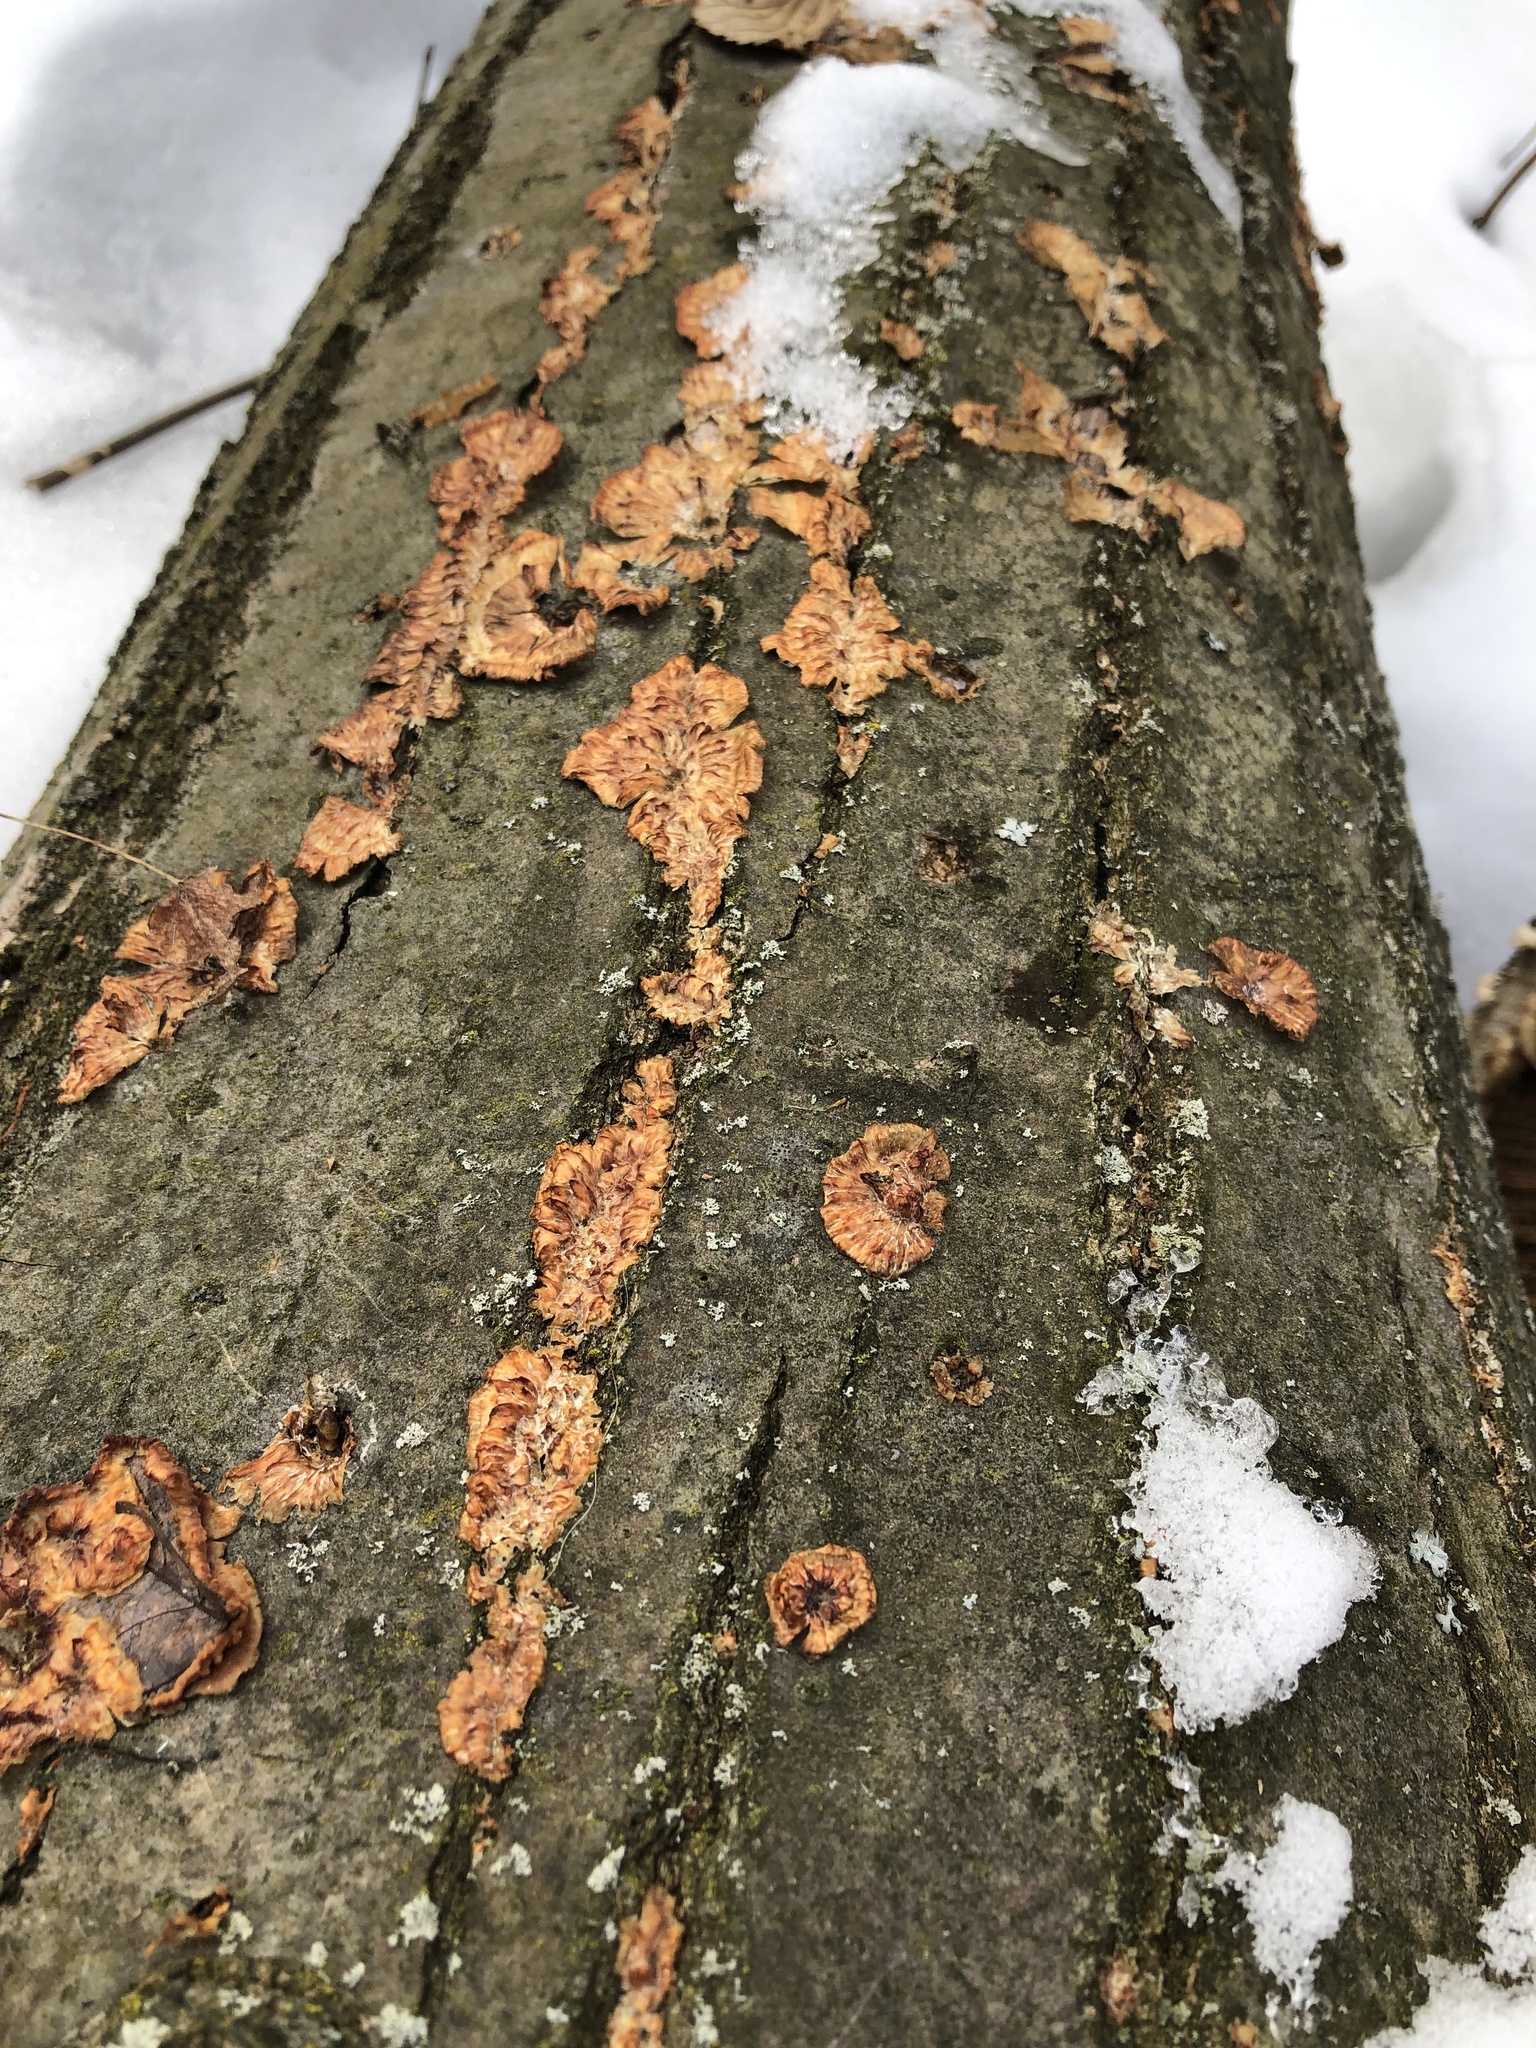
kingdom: Fungi
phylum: Basidiomycota
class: Agaricomycetes
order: Polyporales
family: Meruliaceae
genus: Phlebia
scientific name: Phlebia radiata
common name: Wrinkled crust
